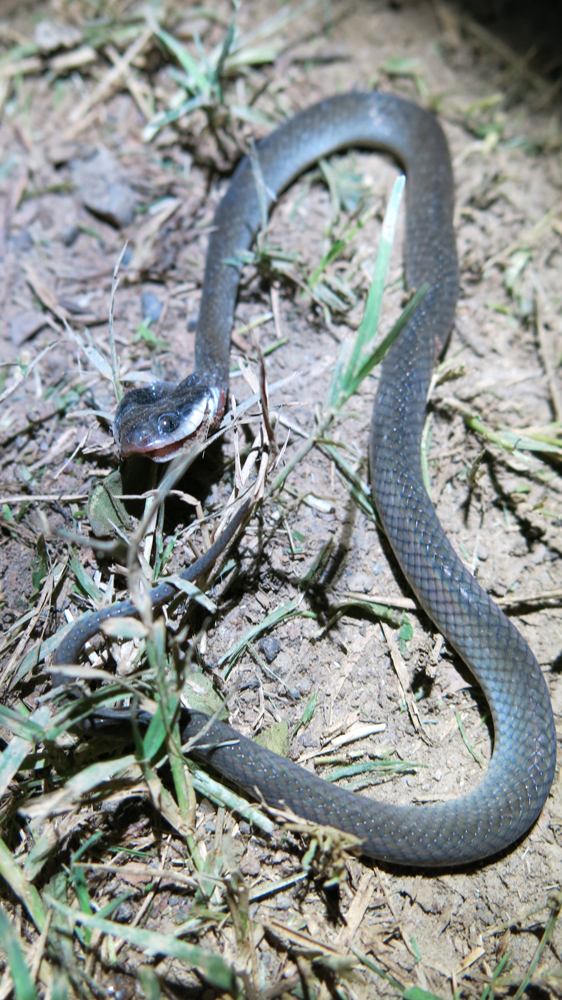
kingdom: Animalia
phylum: Chordata
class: Squamata
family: Colubridae
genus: Crotaphopeltis
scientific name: Crotaphopeltis hotamboeia
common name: Red-lipped snake
